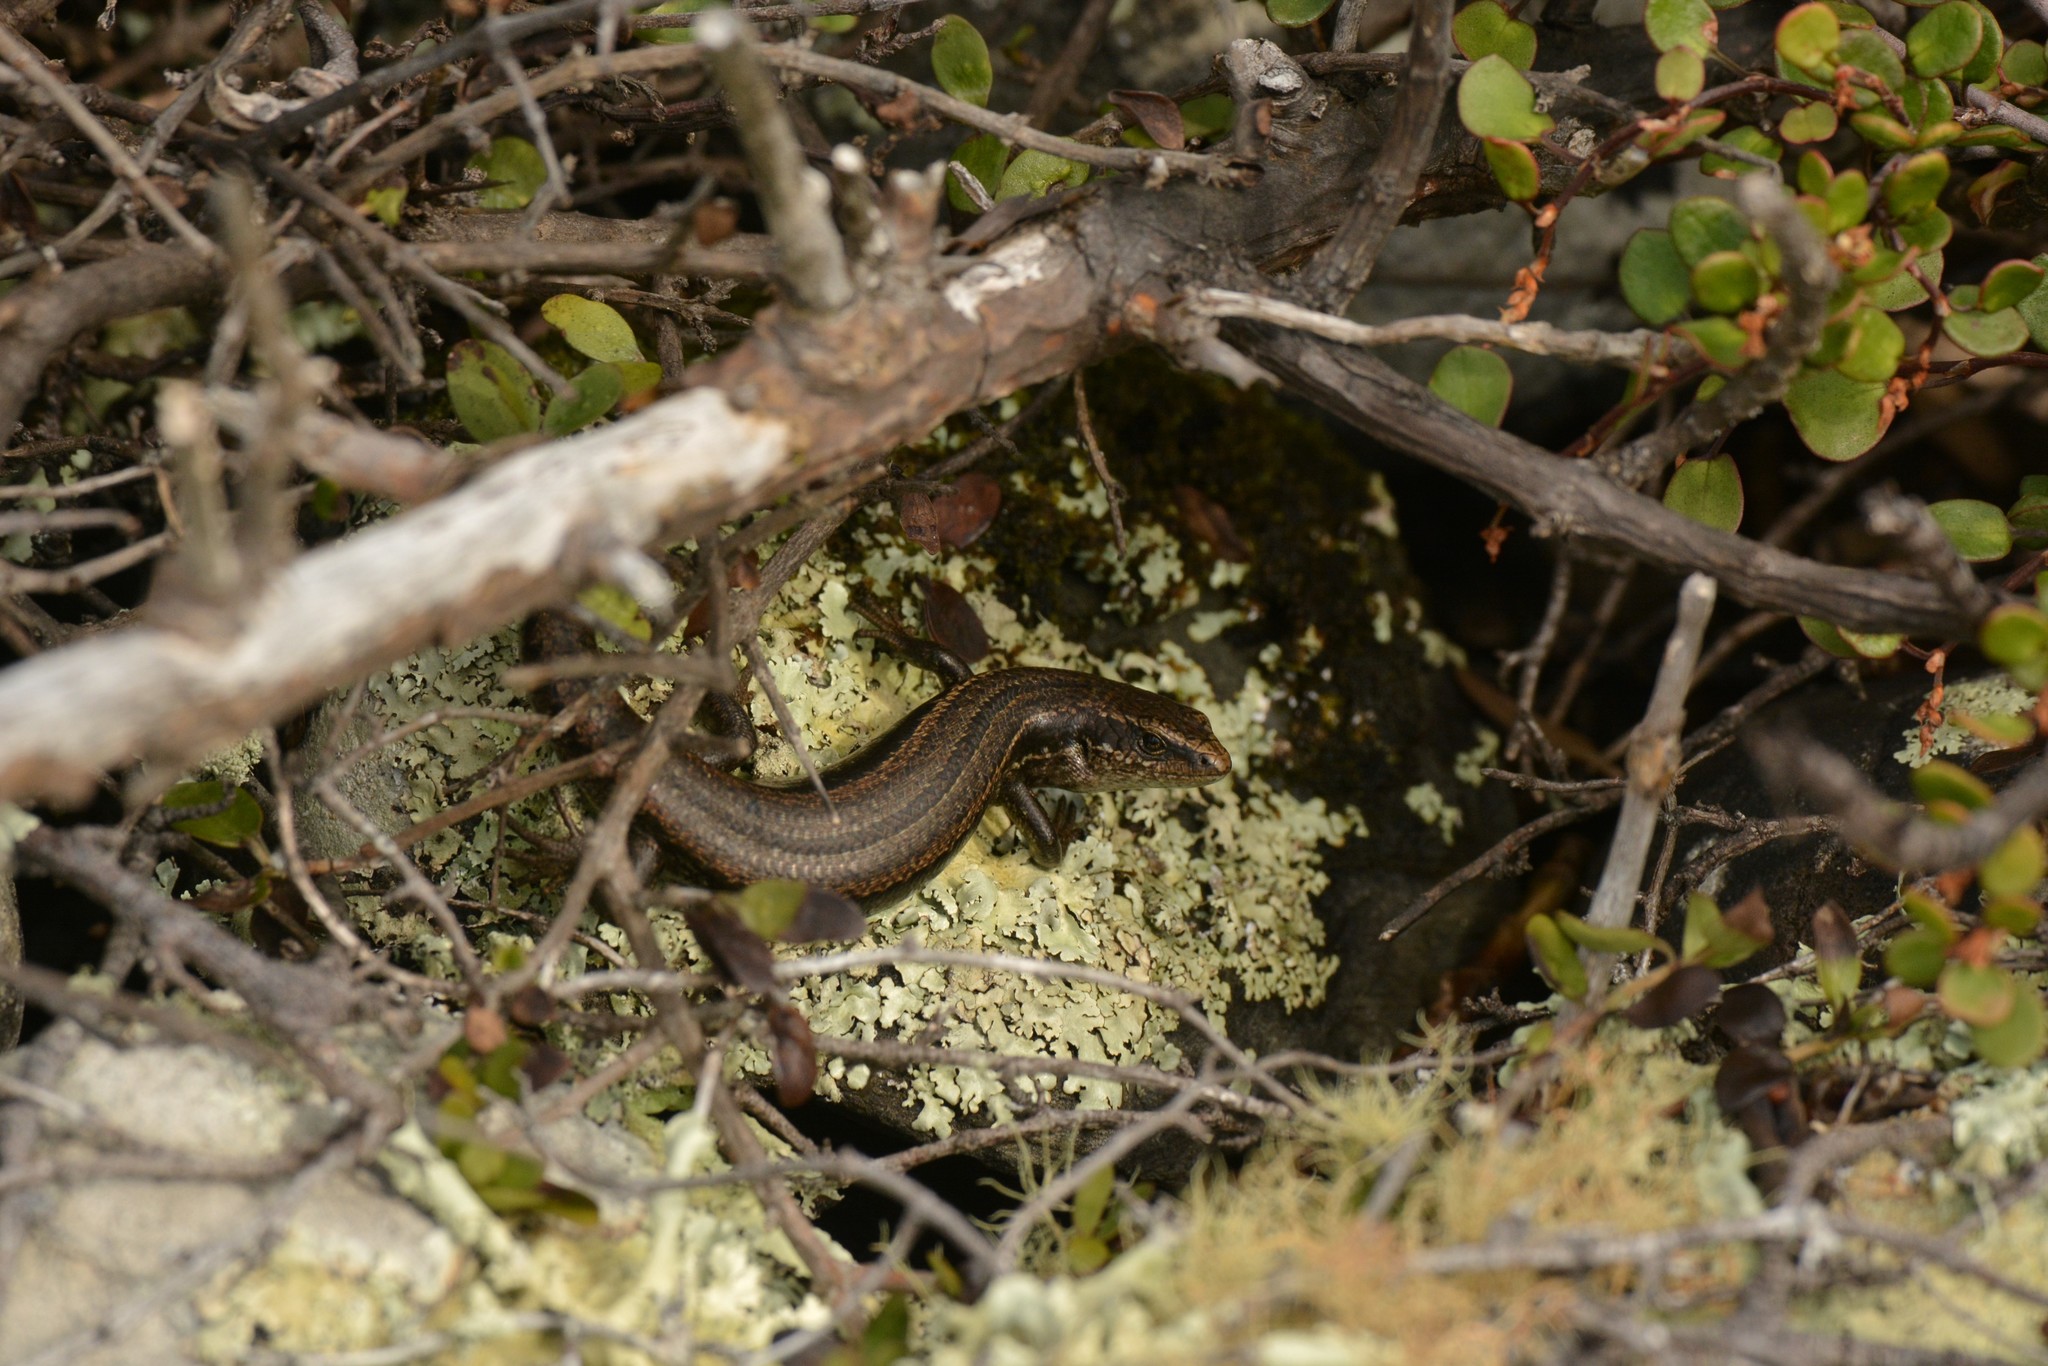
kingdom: Animalia
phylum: Chordata
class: Squamata
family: Scincidae
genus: Oligosoma
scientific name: Oligosoma polychroma
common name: Common new zealand skink
